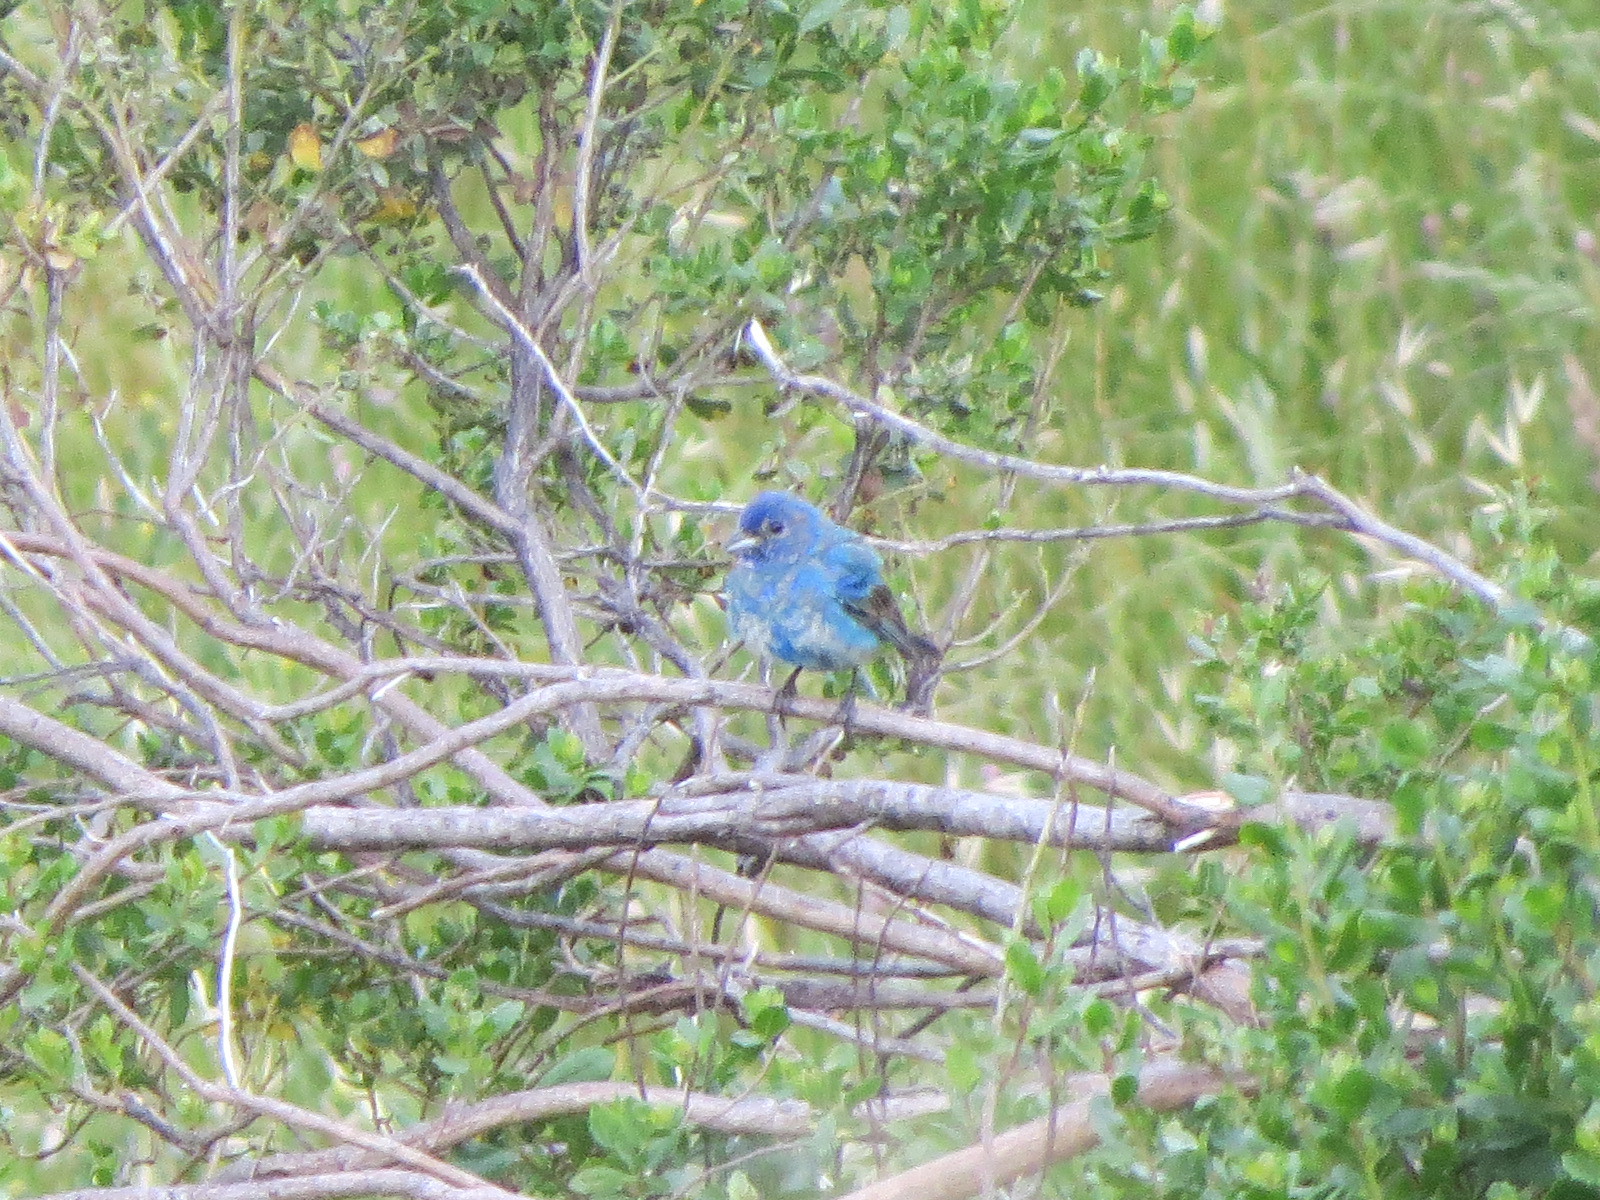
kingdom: Animalia
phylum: Chordata
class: Aves
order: Passeriformes
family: Cardinalidae
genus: Passerina
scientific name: Passerina cyanea
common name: Indigo bunting
